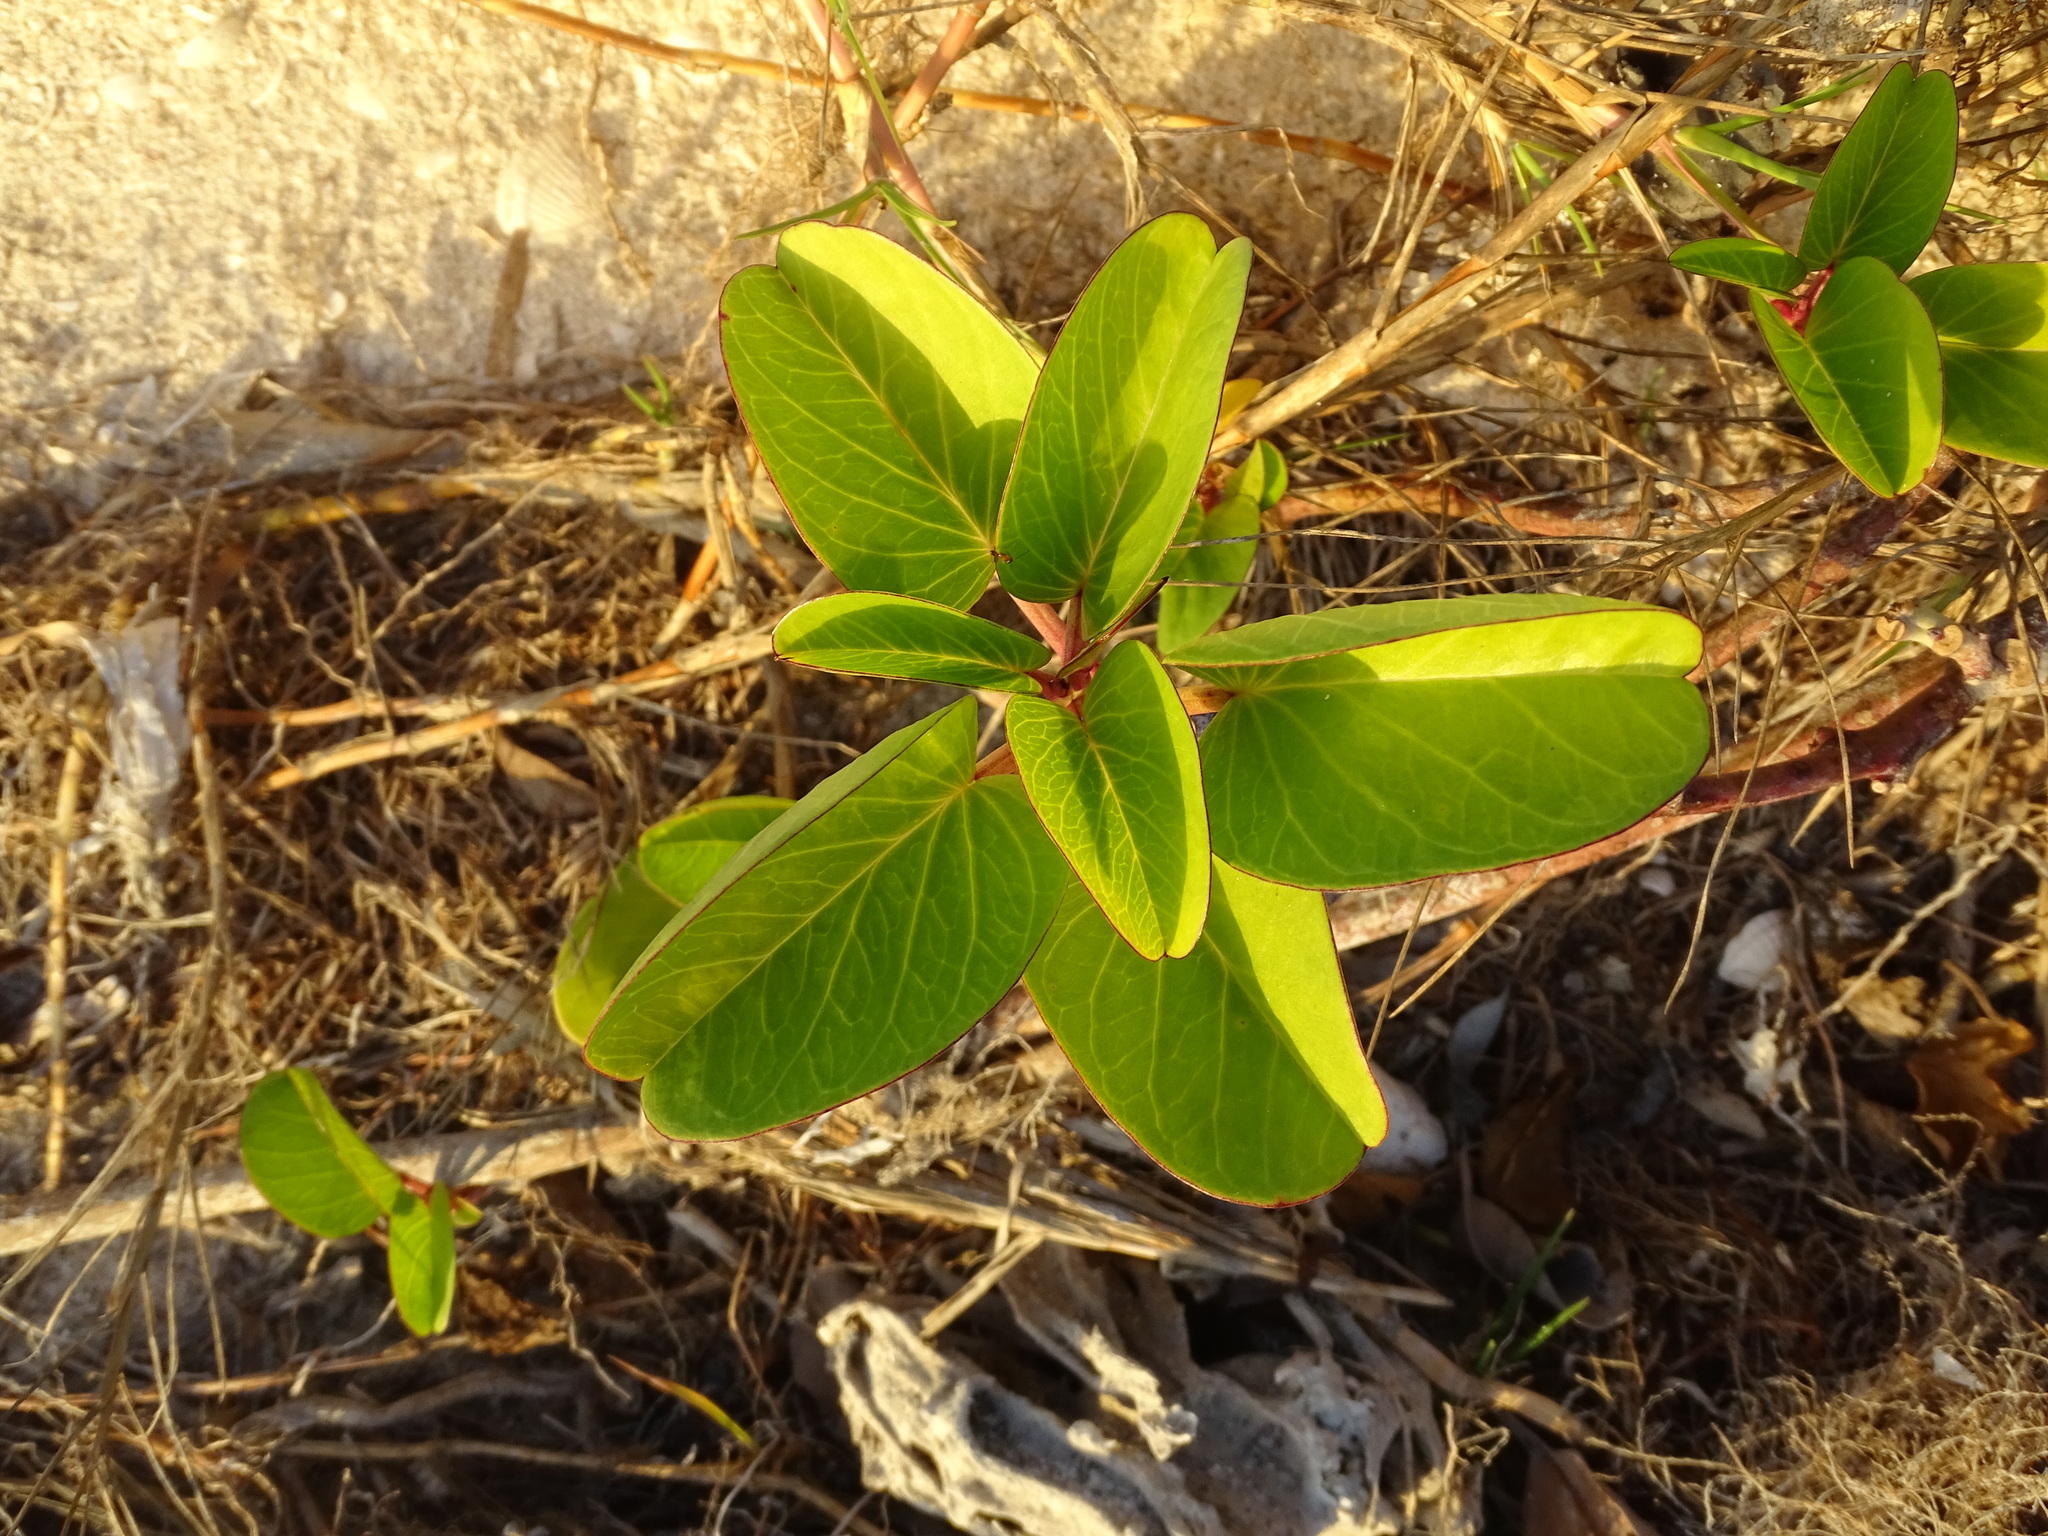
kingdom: Plantae
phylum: Tracheophyta
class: Magnoliopsida
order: Solanales
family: Convolvulaceae
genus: Ipomoea
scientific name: Ipomoea pes-caprae
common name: Beach morning glory
